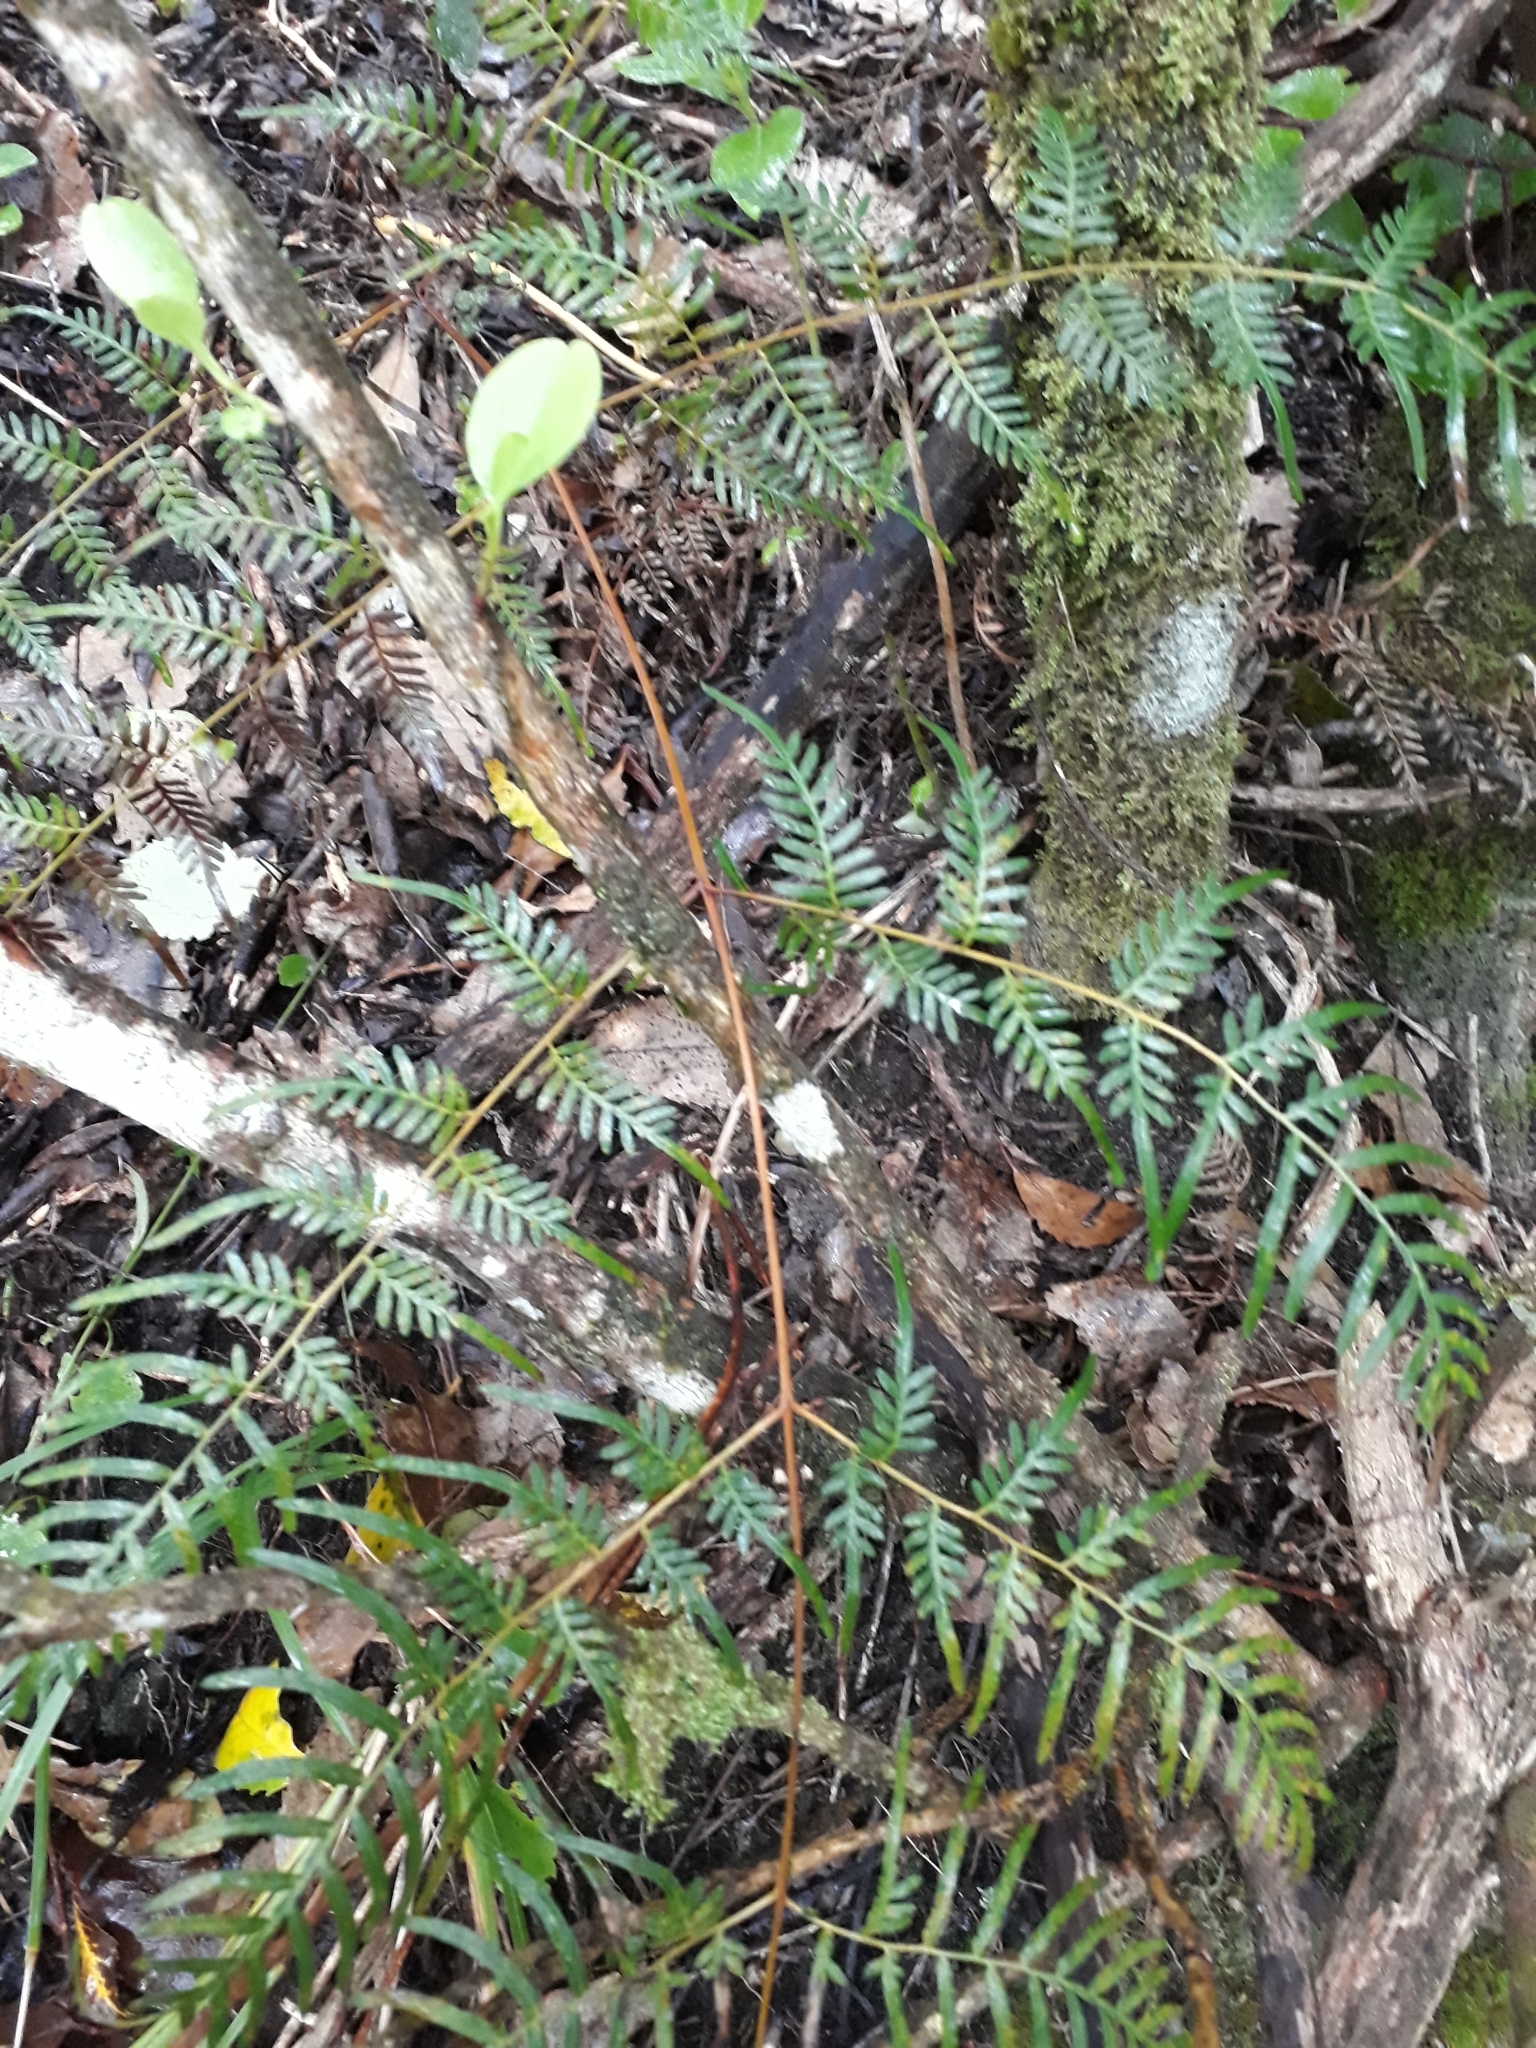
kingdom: Plantae
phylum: Tracheophyta
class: Polypodiopsida
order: Polypodiales
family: Dennstaedtiaceae
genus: Pteridium
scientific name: Pteridium esculentum
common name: Bracken fern
